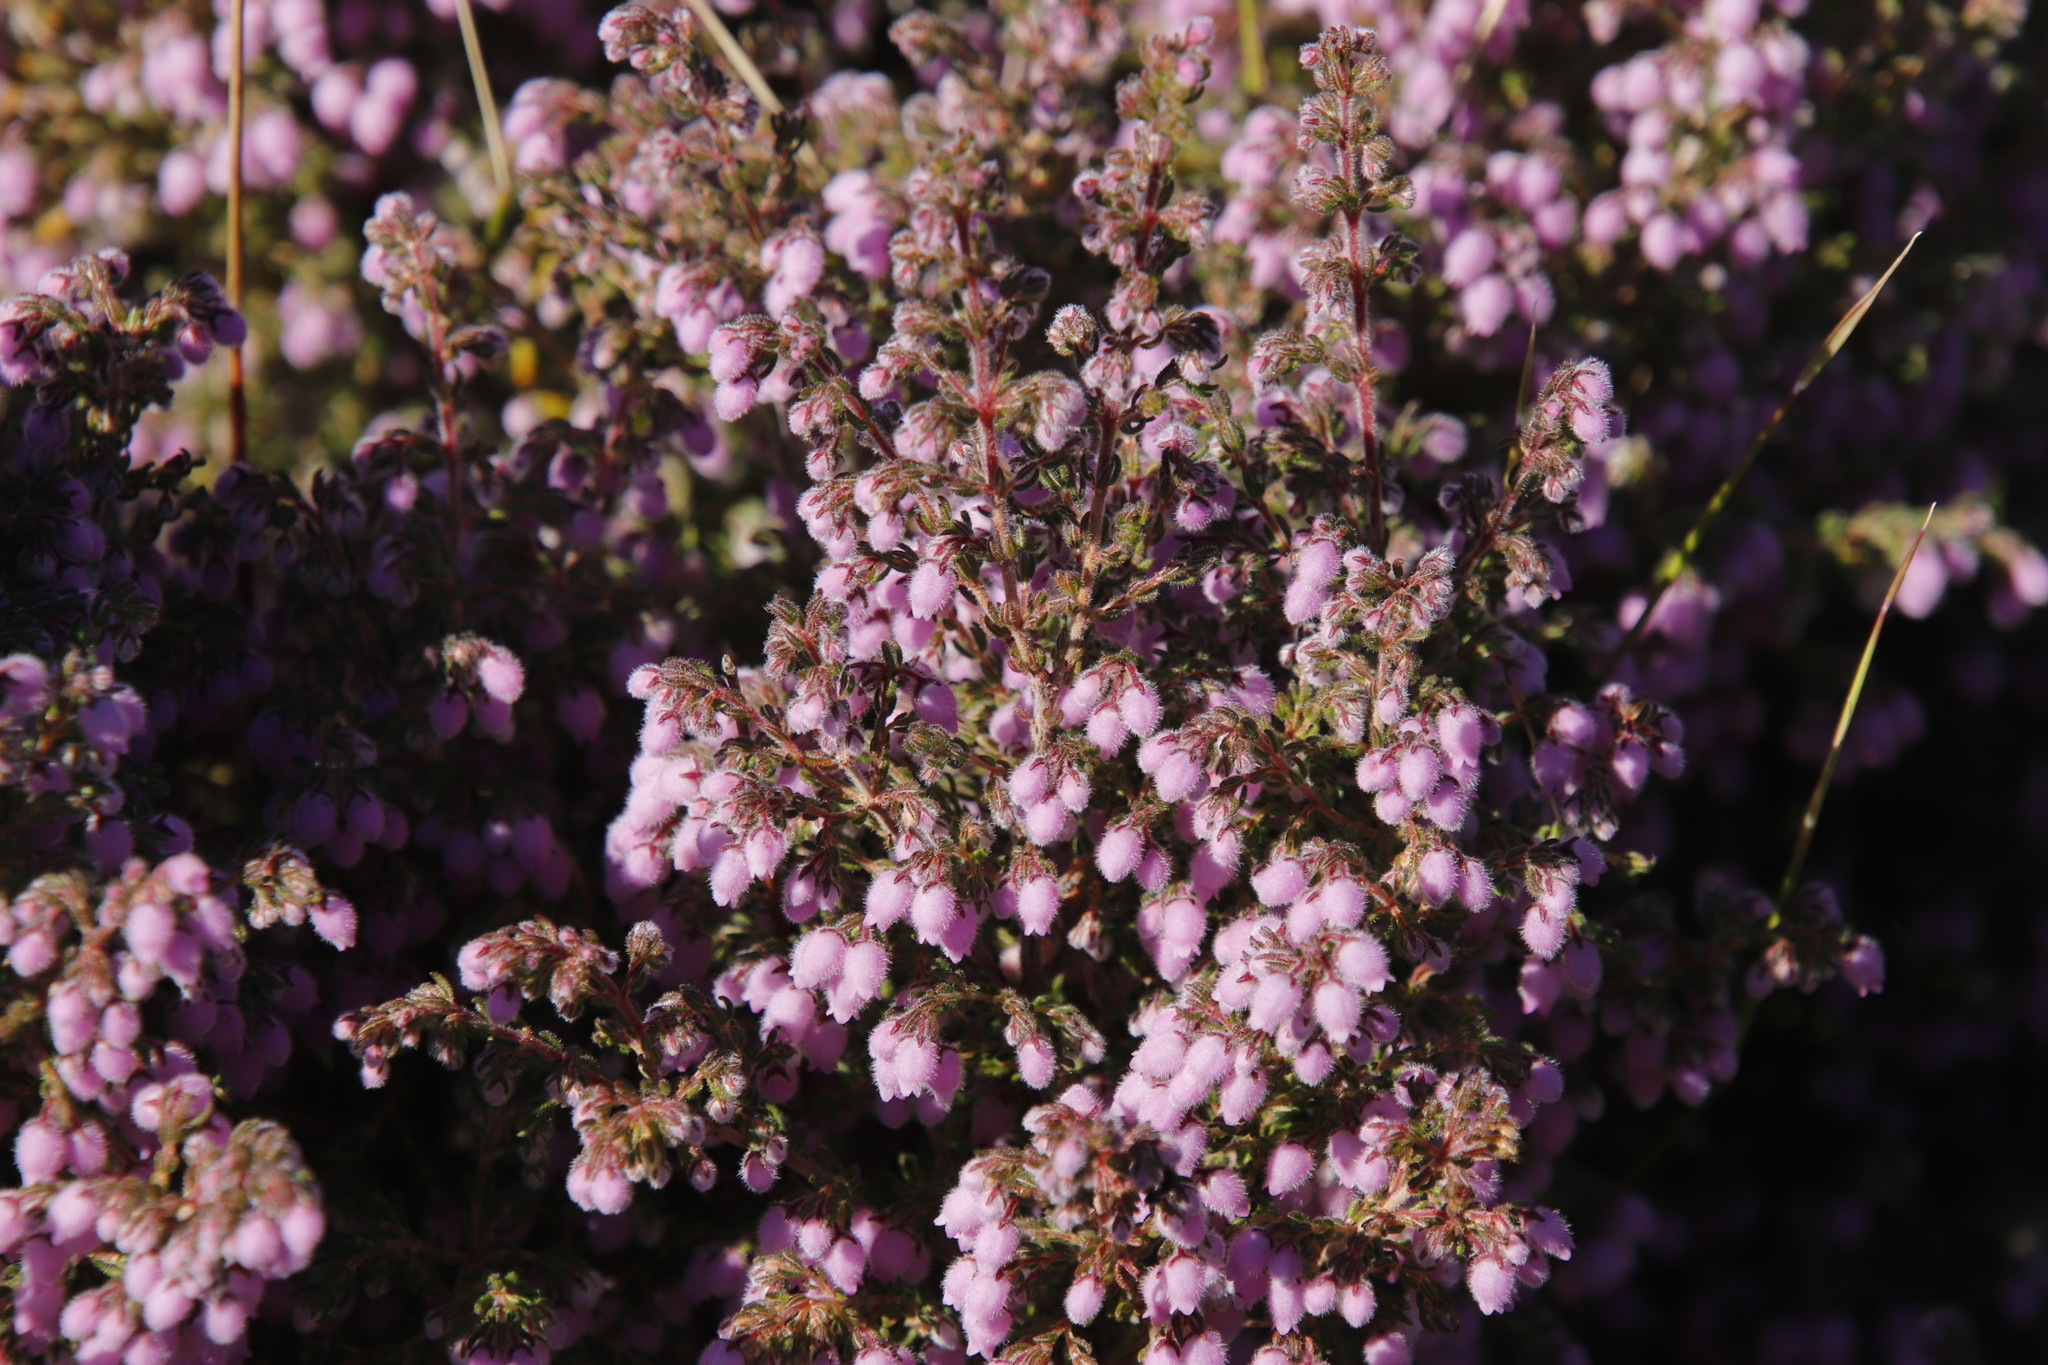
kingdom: Plantae
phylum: Tracheophyta
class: Magnoliopsida
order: Ericales
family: Ericaceae
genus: Erica
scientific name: Erica hirtiflora
